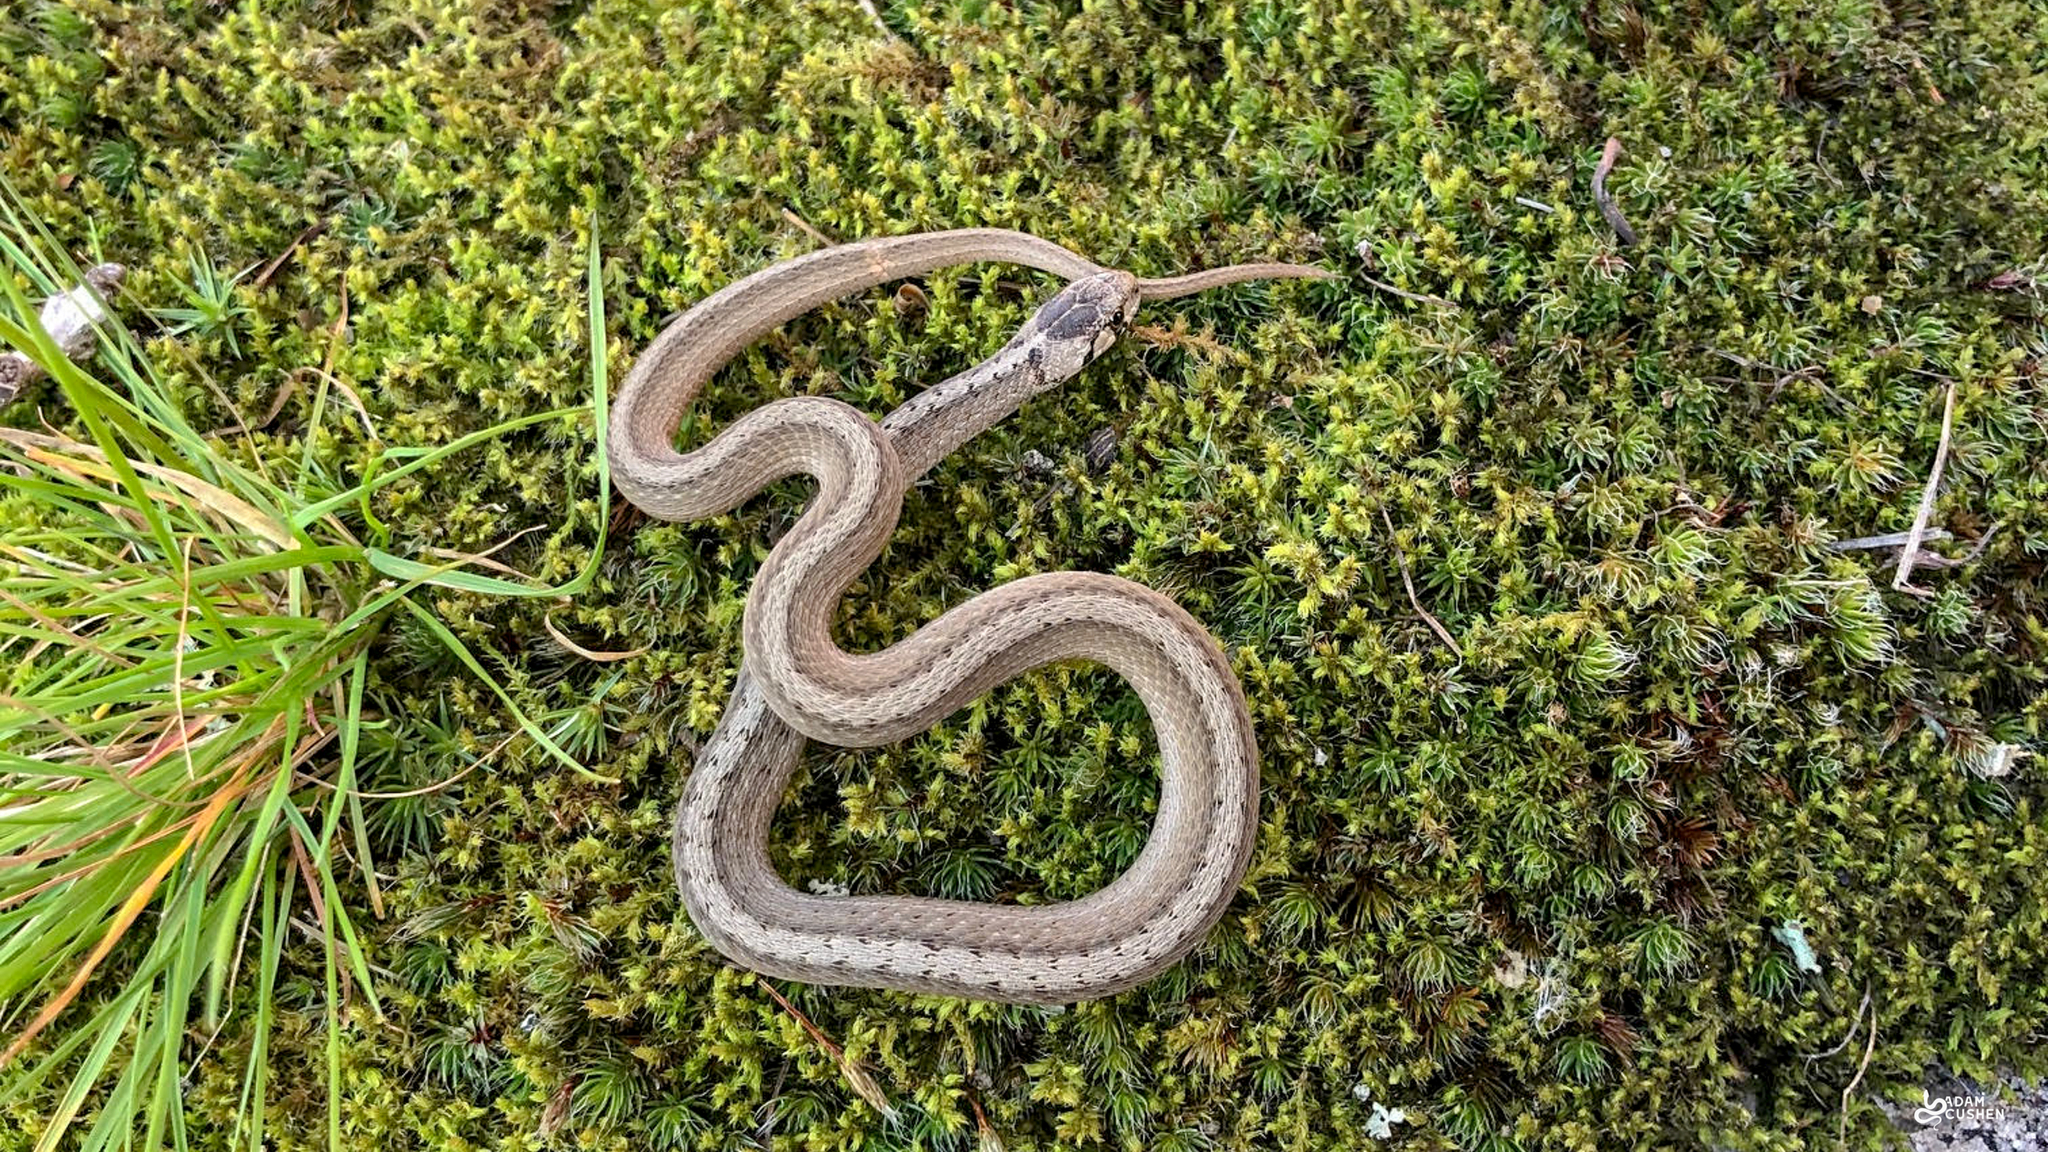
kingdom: Animalia
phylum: Chordata
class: Squamata
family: Colubridae
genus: Storeria
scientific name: Storeria dekayi
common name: (dekay’s) brown snake
